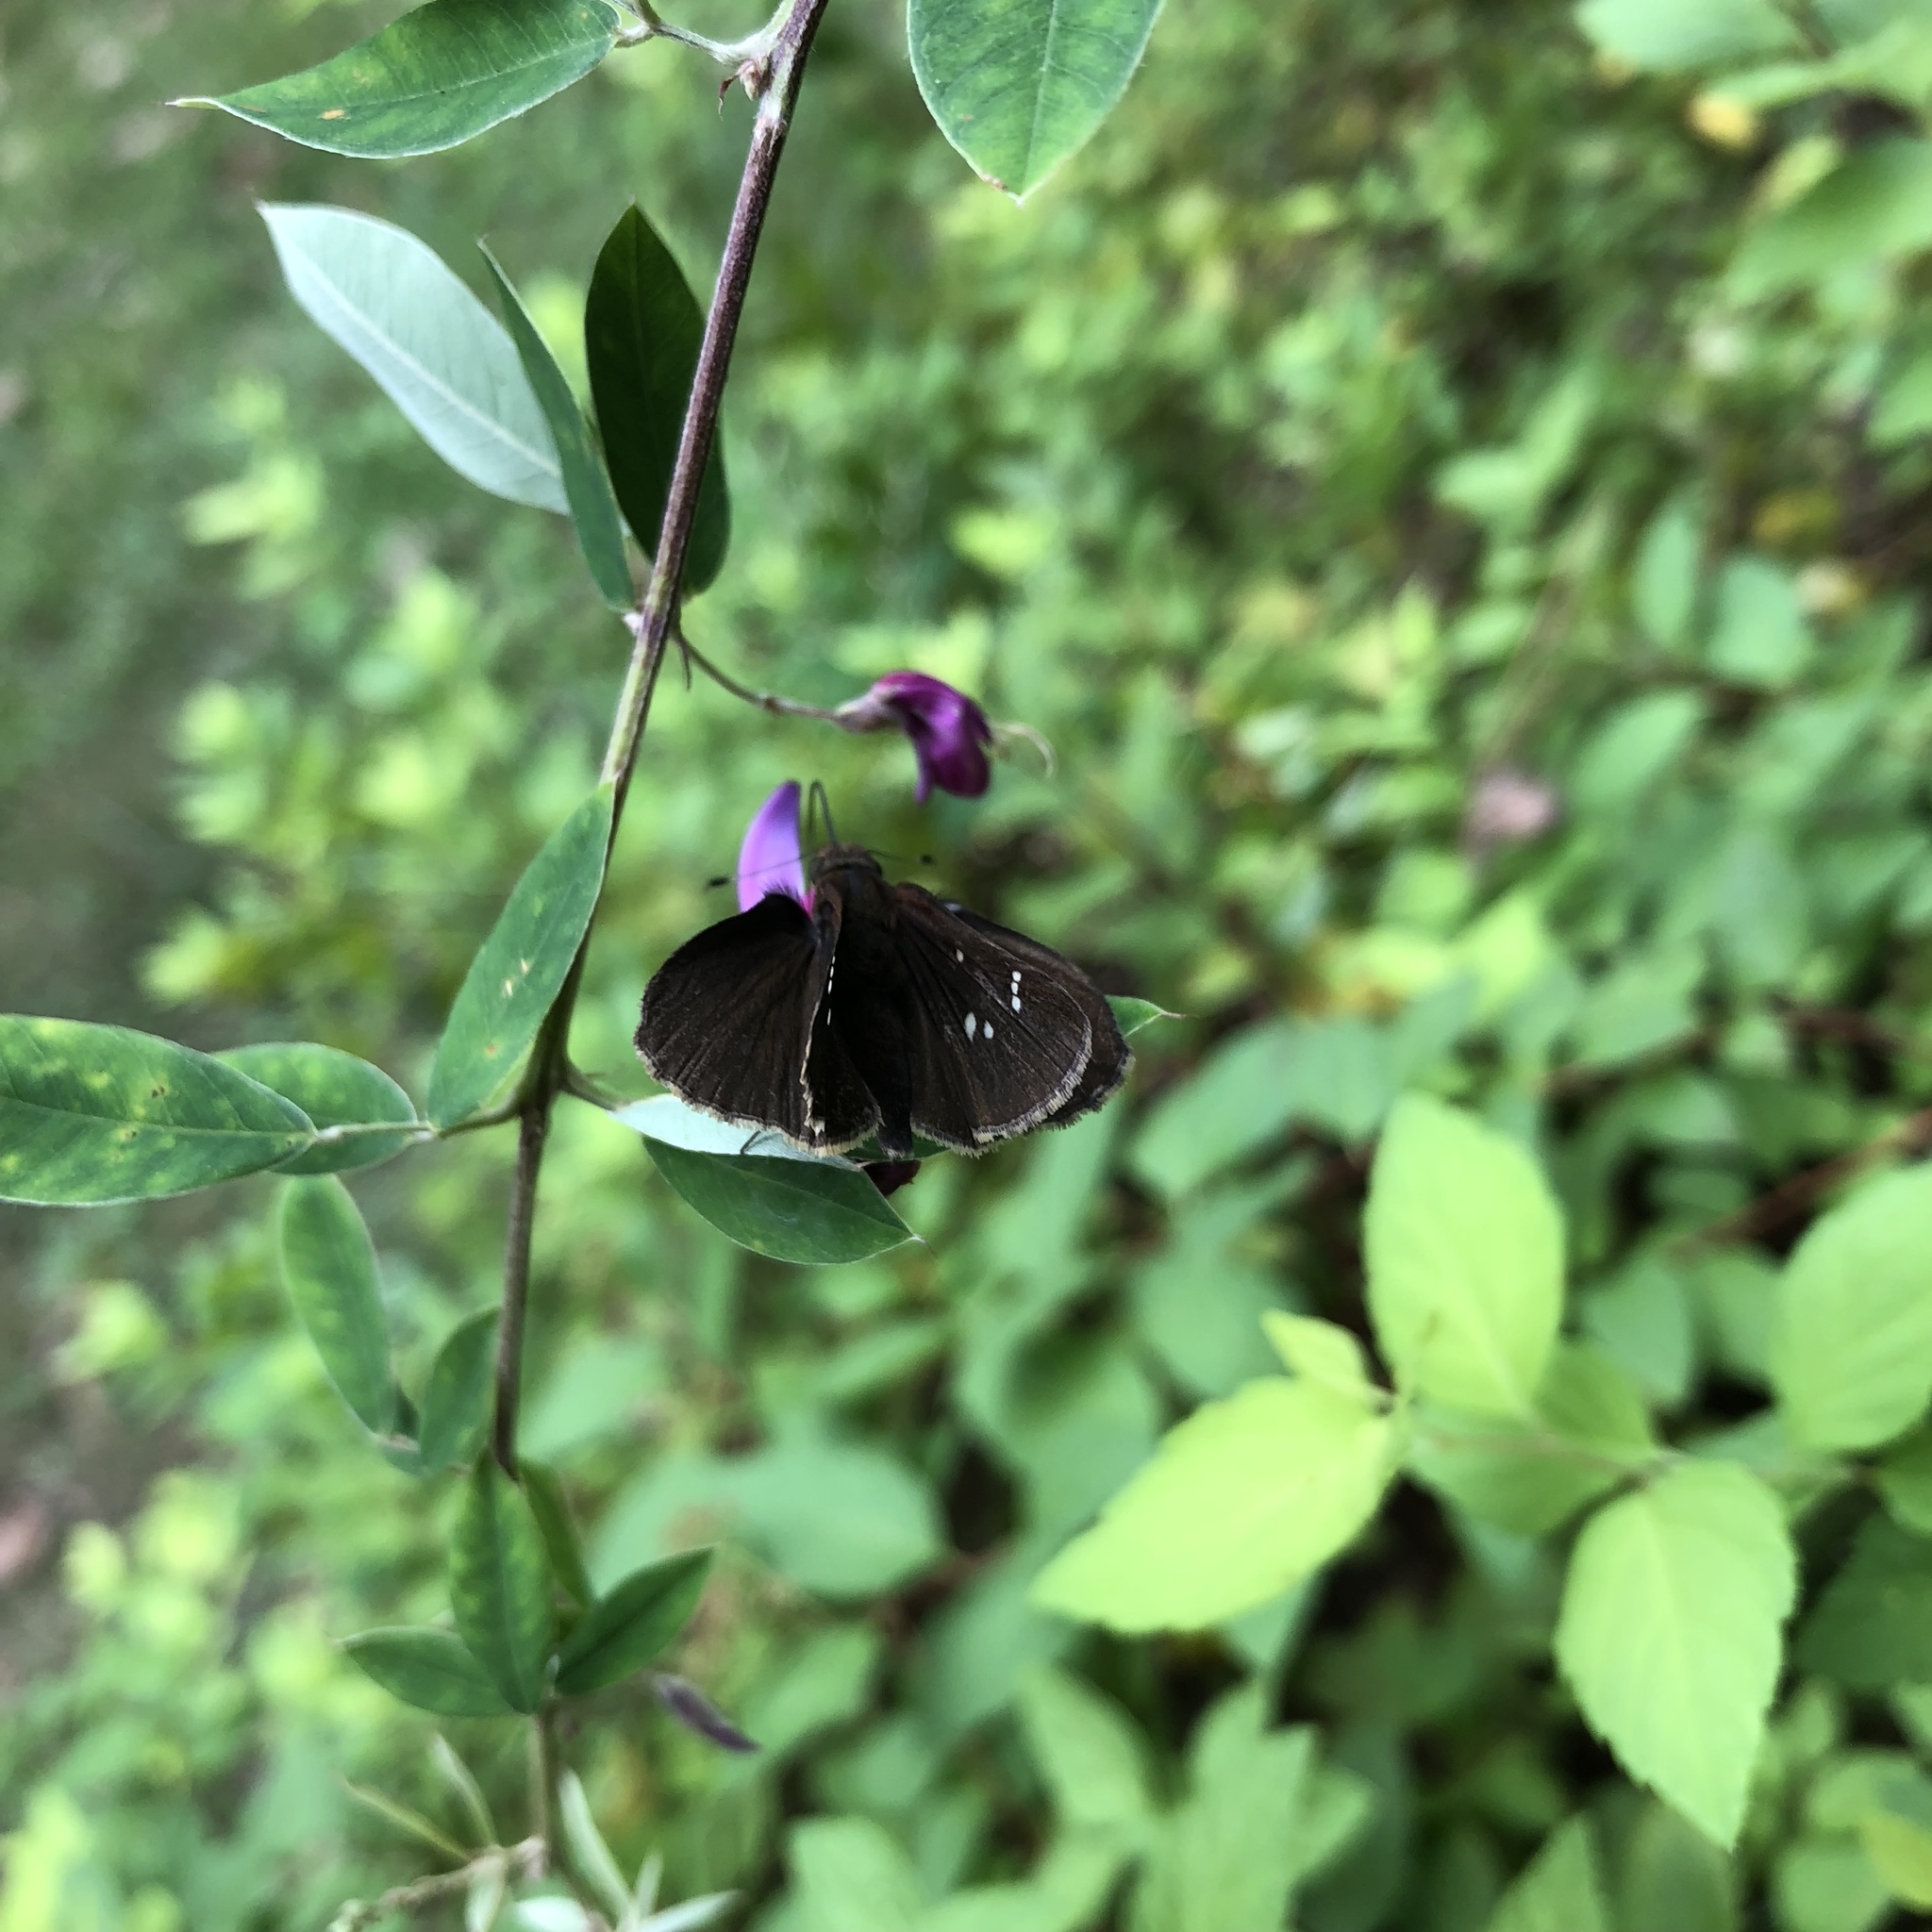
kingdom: Animalia
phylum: Arthropoda
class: Insecta
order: Lepidoptera
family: Hesperiidae
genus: Lerema
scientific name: Lerema accius
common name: Clouded skipper
